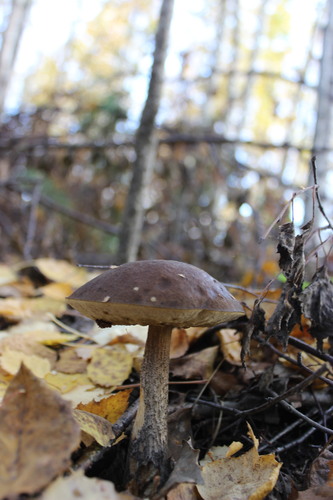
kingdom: Fungi
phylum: Basidiomycota
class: Agaricomycetes
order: Boletales
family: Boletaceae
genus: Leccinum
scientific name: Leccinum
